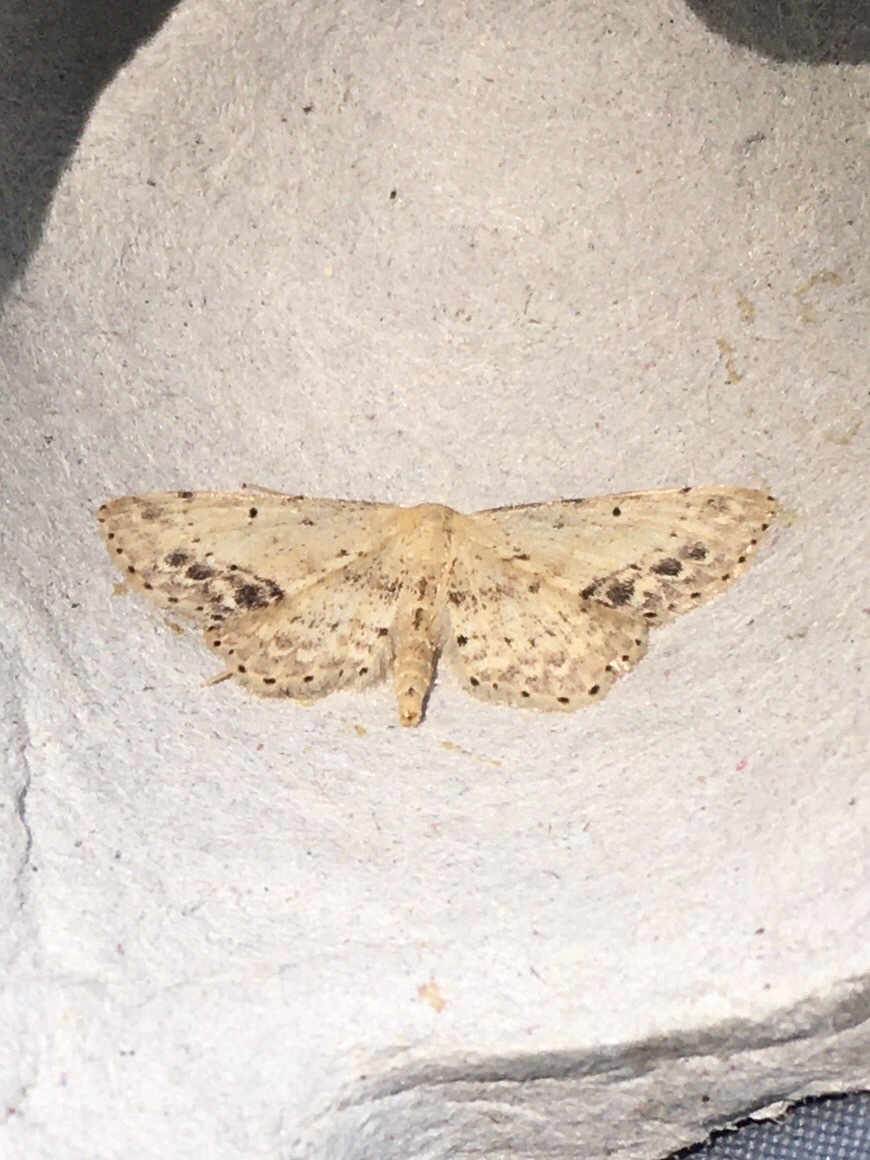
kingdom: Animalia
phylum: Arthropoda
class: Insecta
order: Lepidoptera
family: Geometridae
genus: Idaea
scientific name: Idaea dimidiata
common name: Single-dotted wave
